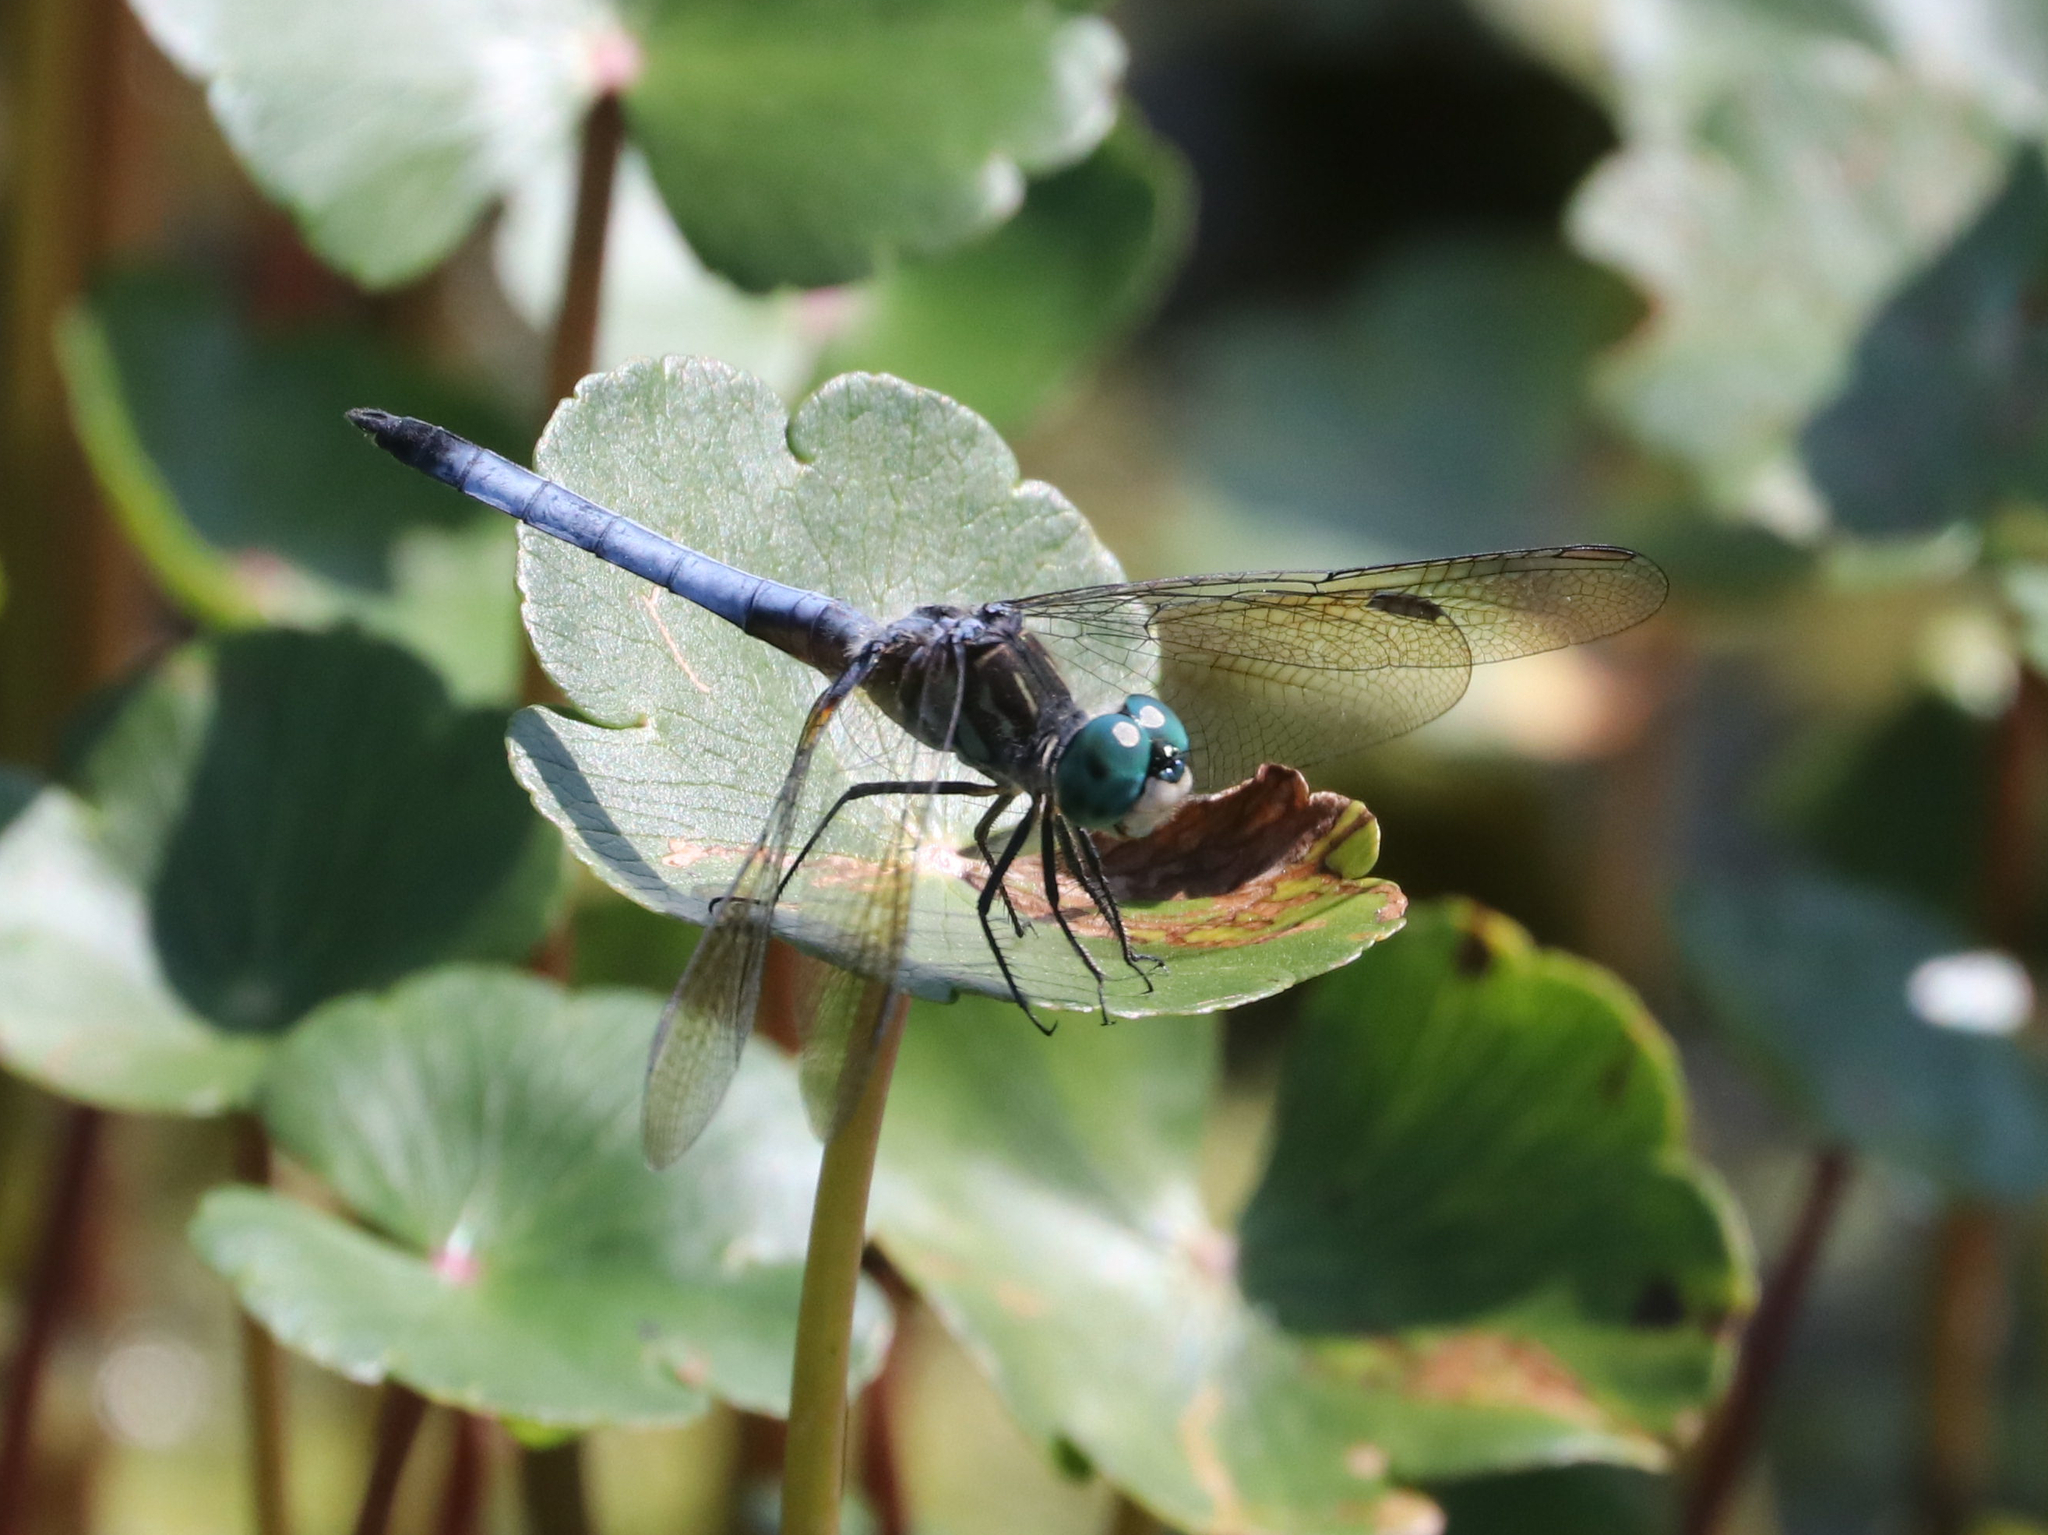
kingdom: Animalia
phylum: Arthropoda
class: Insecta
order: Odonata
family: Libellulidae
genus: Pachydiplax
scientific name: Pachydiplax longipennis
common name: Blue dasher
